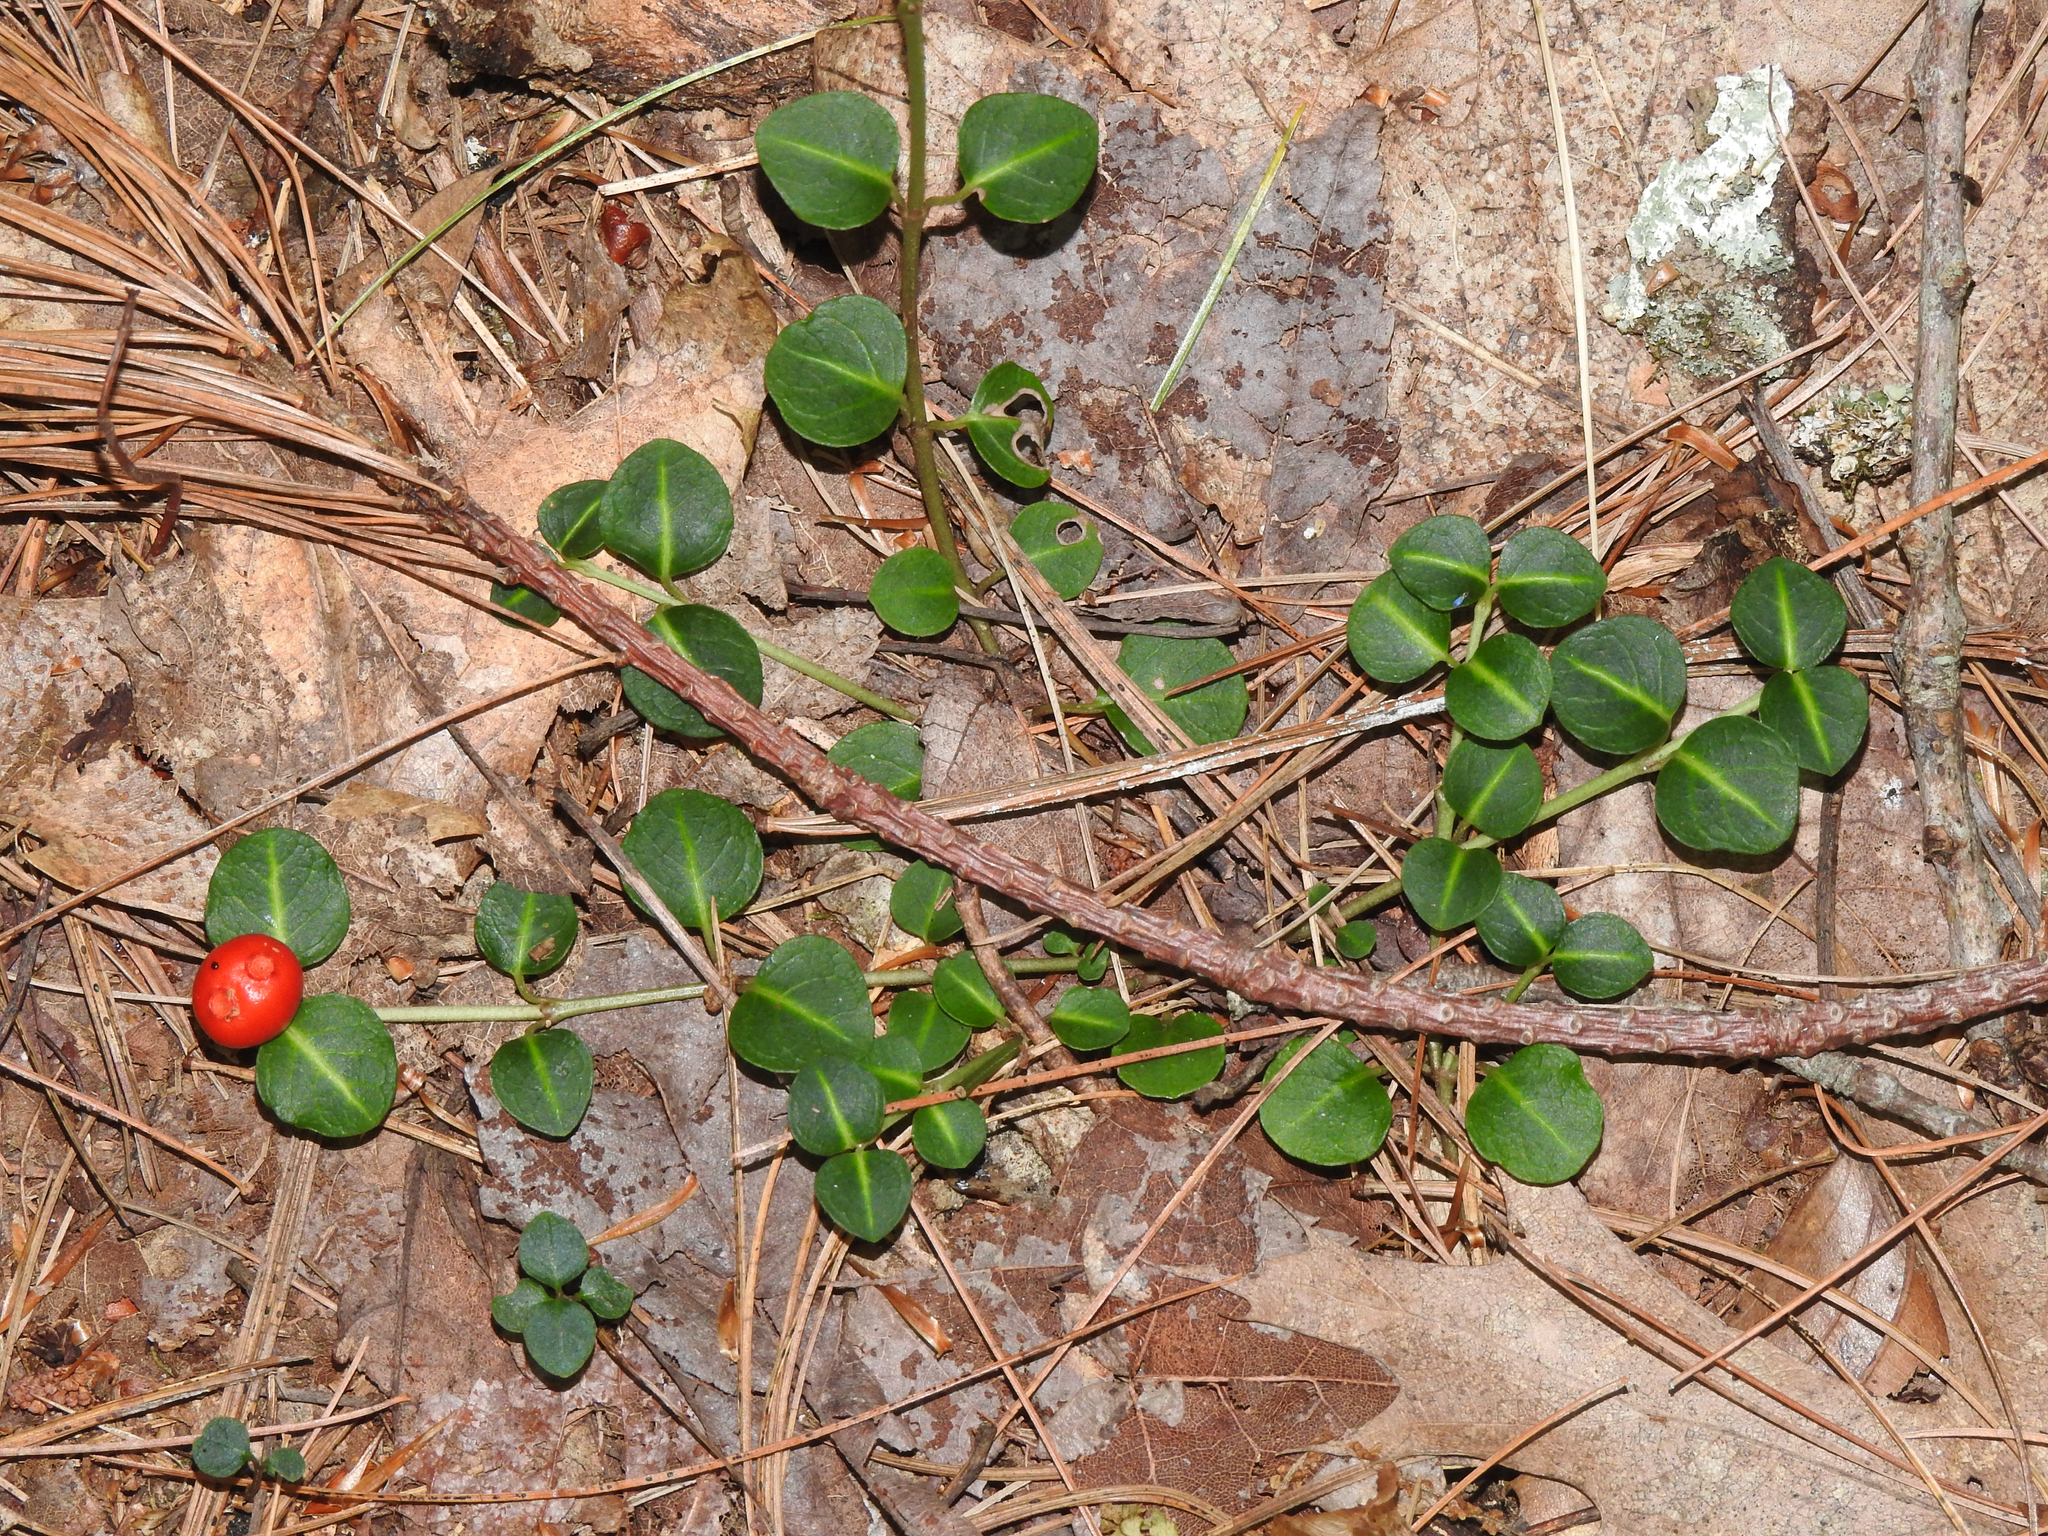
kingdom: Plantae
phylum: Tracheophyta
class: Magnoliopsida
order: Gentianales
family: Rubiaceae
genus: Mitchella
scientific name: Mitchella repens
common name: Partridge-berry
